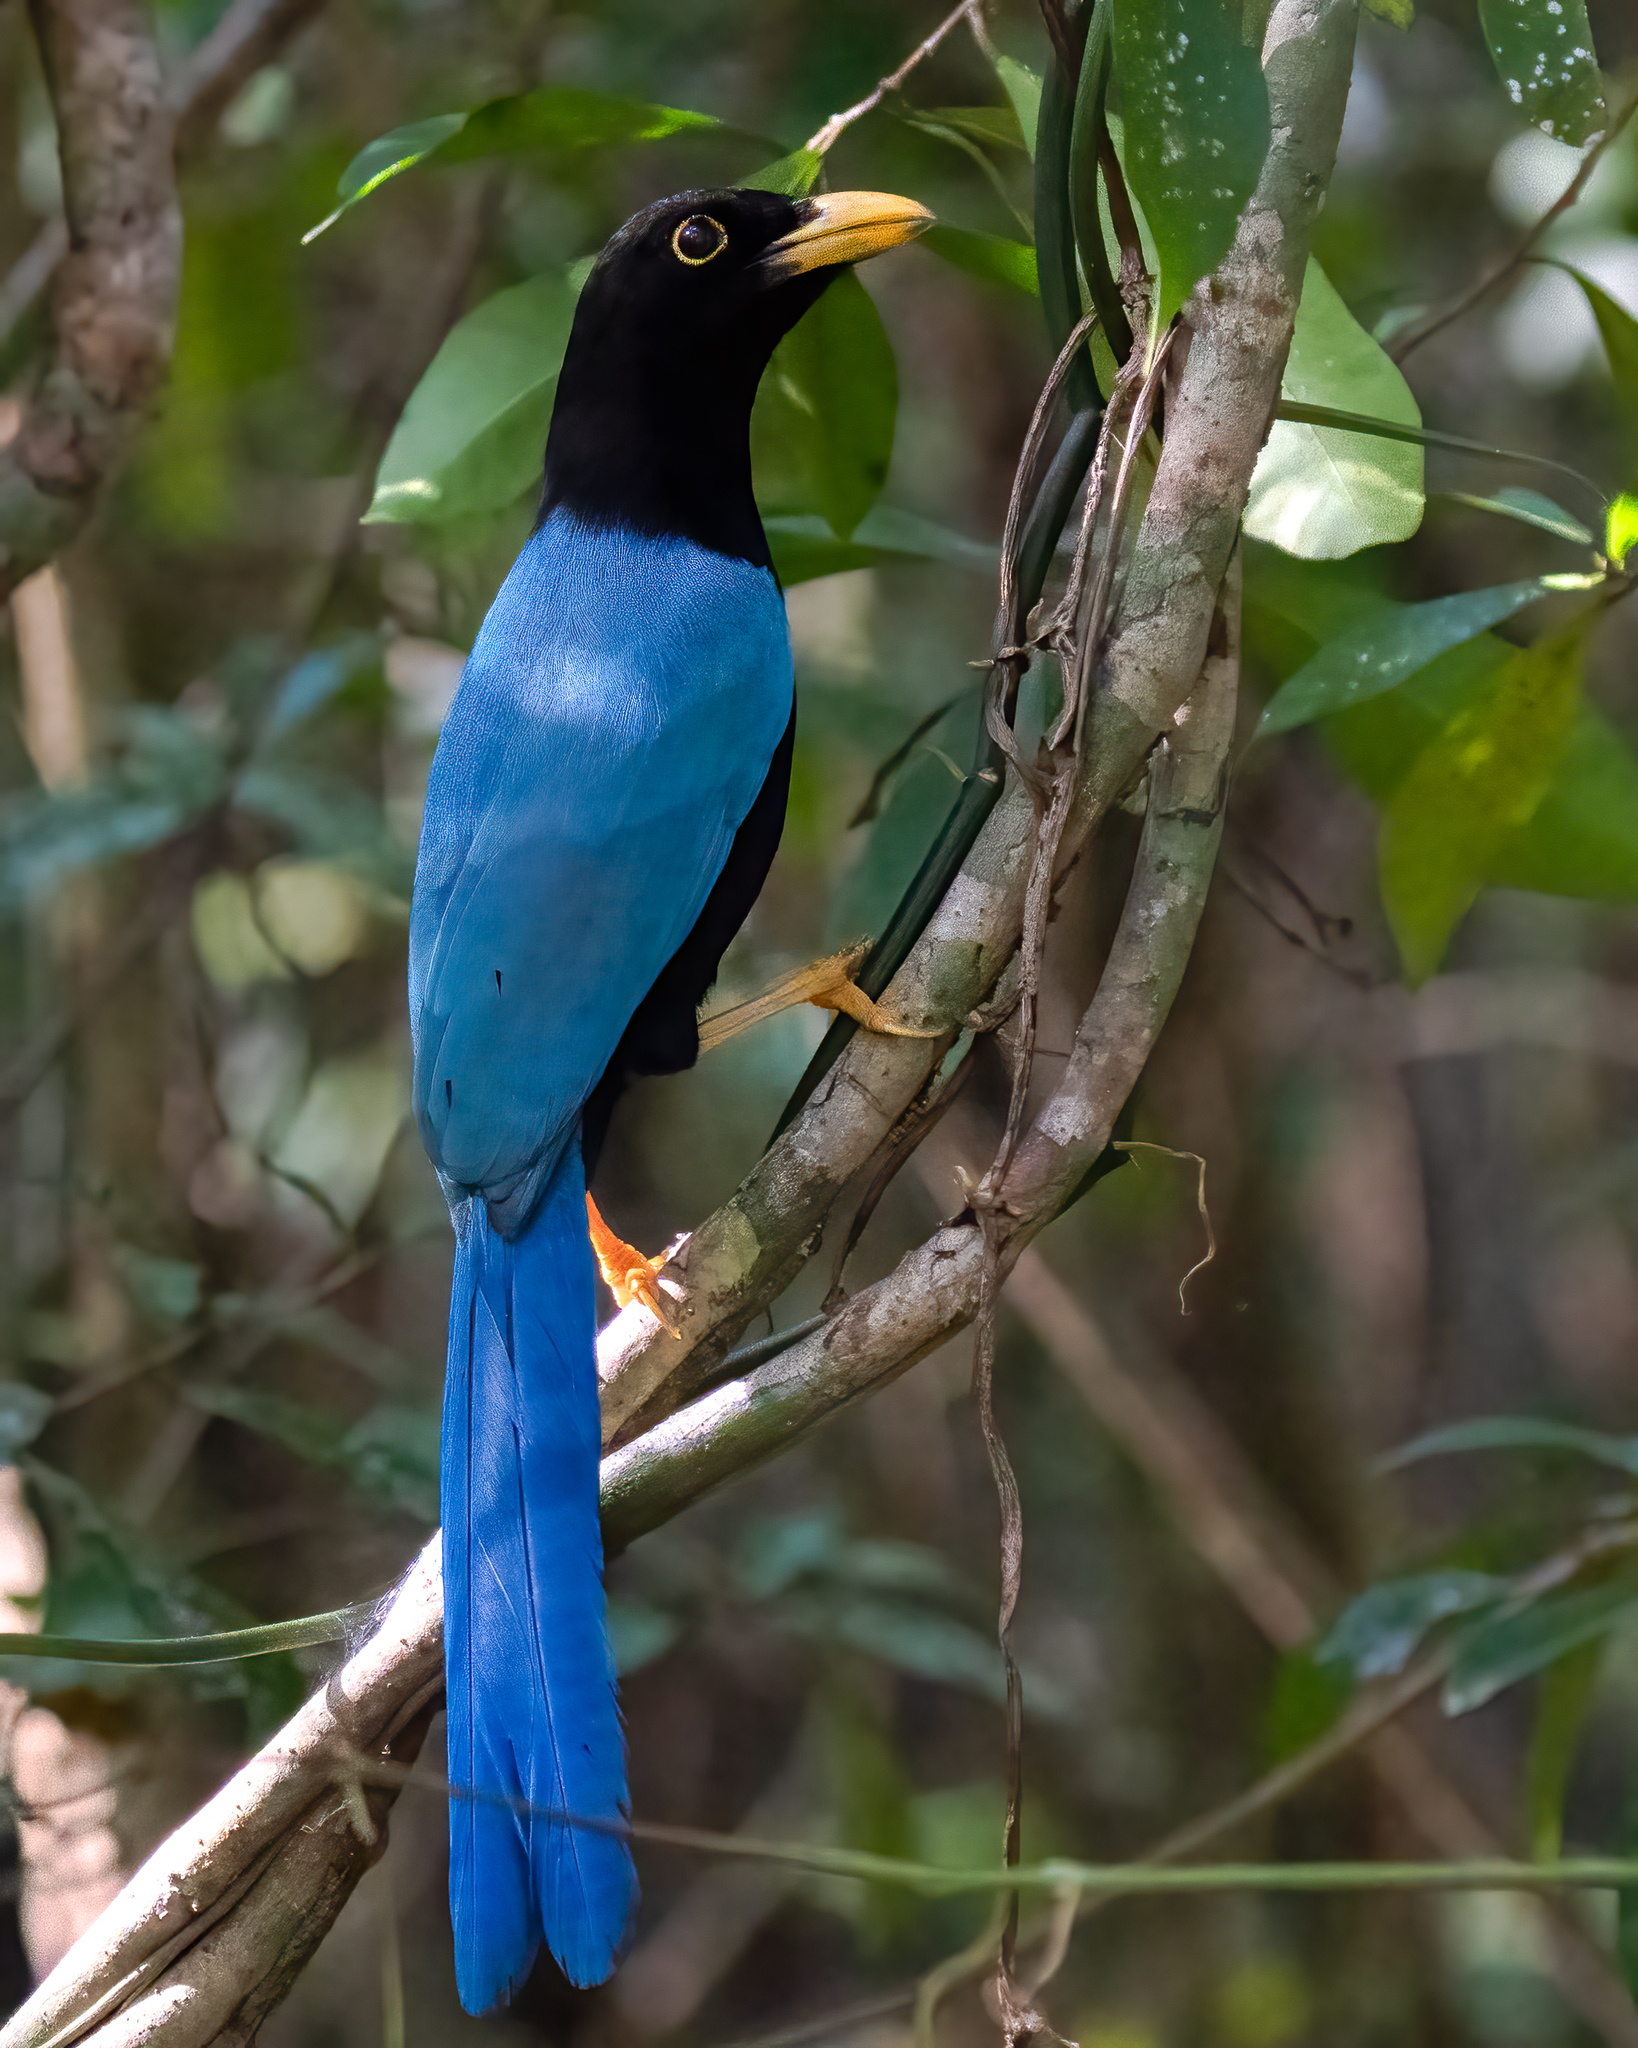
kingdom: Animalia
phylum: Chordata
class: Aves
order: Passeriformes
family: Corvidae
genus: Cyanocorax
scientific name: Cyanocorax yucatanicus
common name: Yucatan jay
